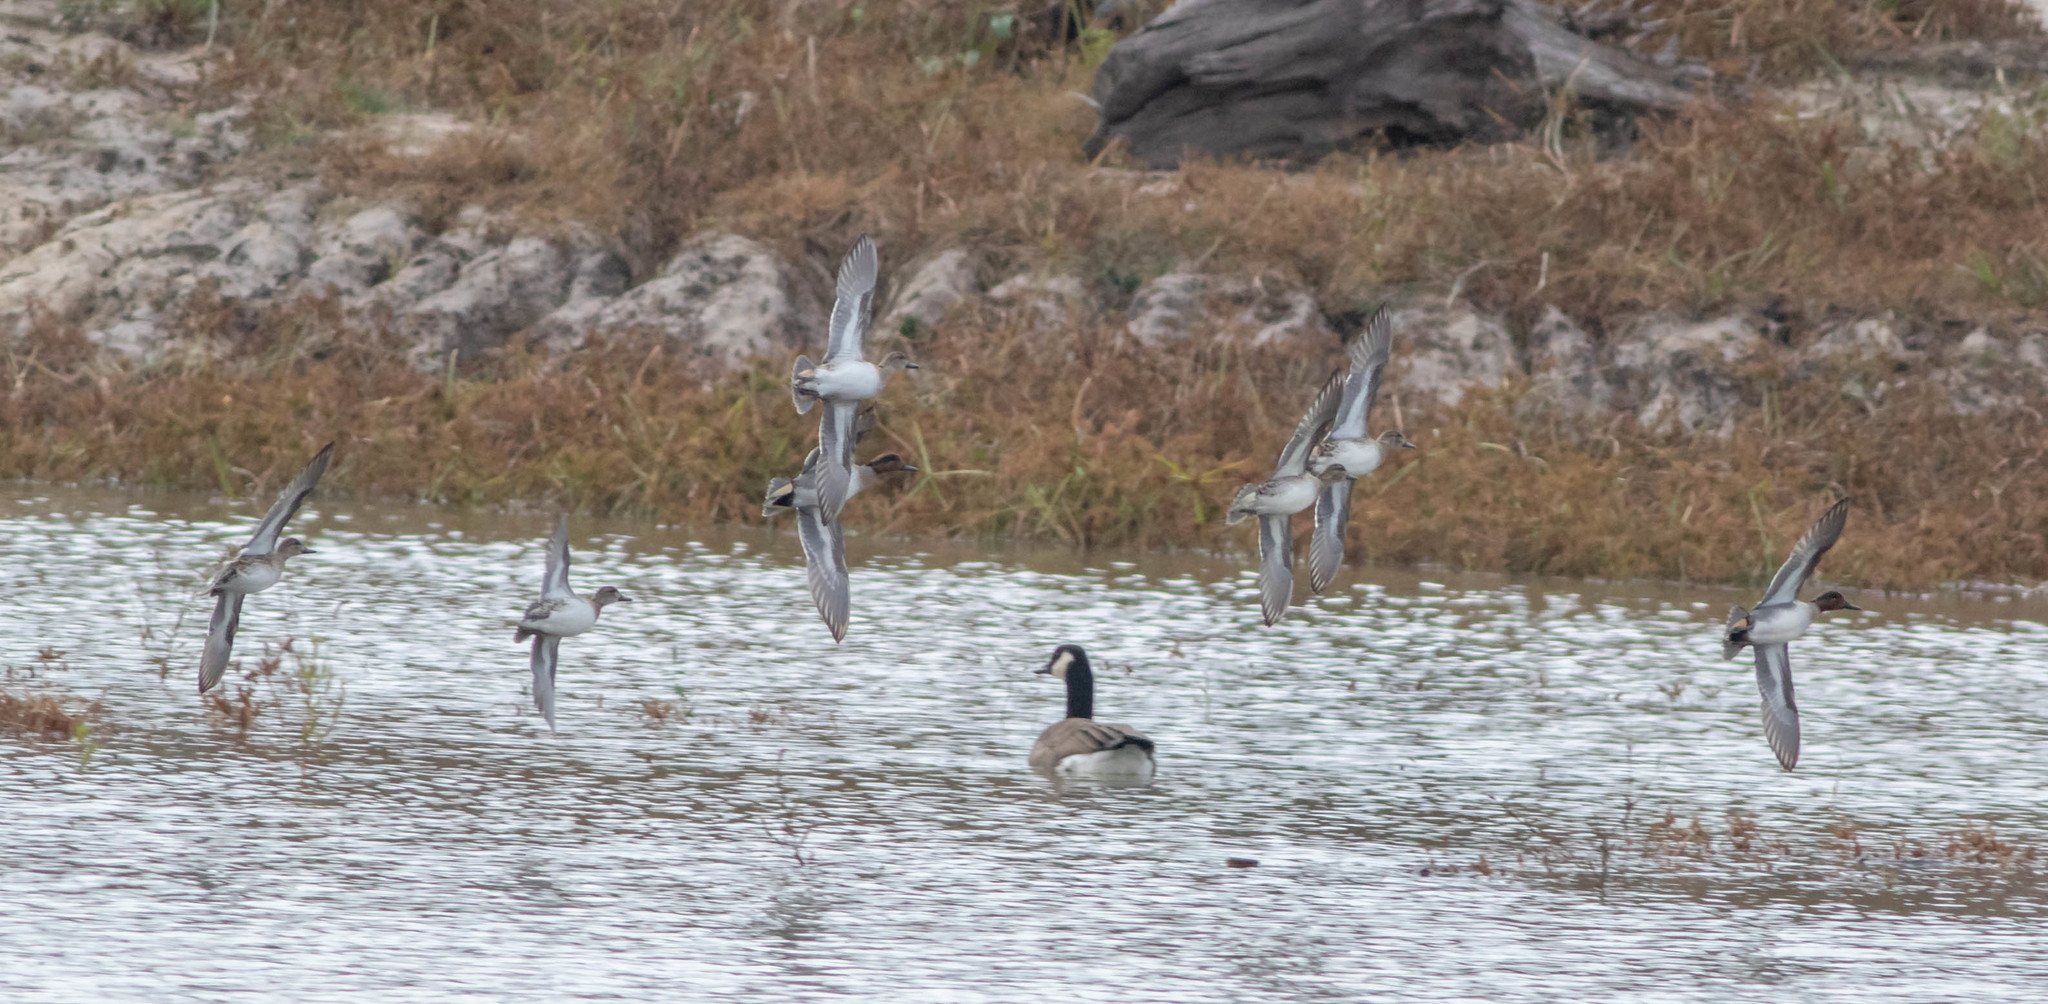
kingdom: Animalia
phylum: Chordata
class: Aves
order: Anseriformes
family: Anatidae
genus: Anas
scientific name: Anas crecca
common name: Eurasian teal
